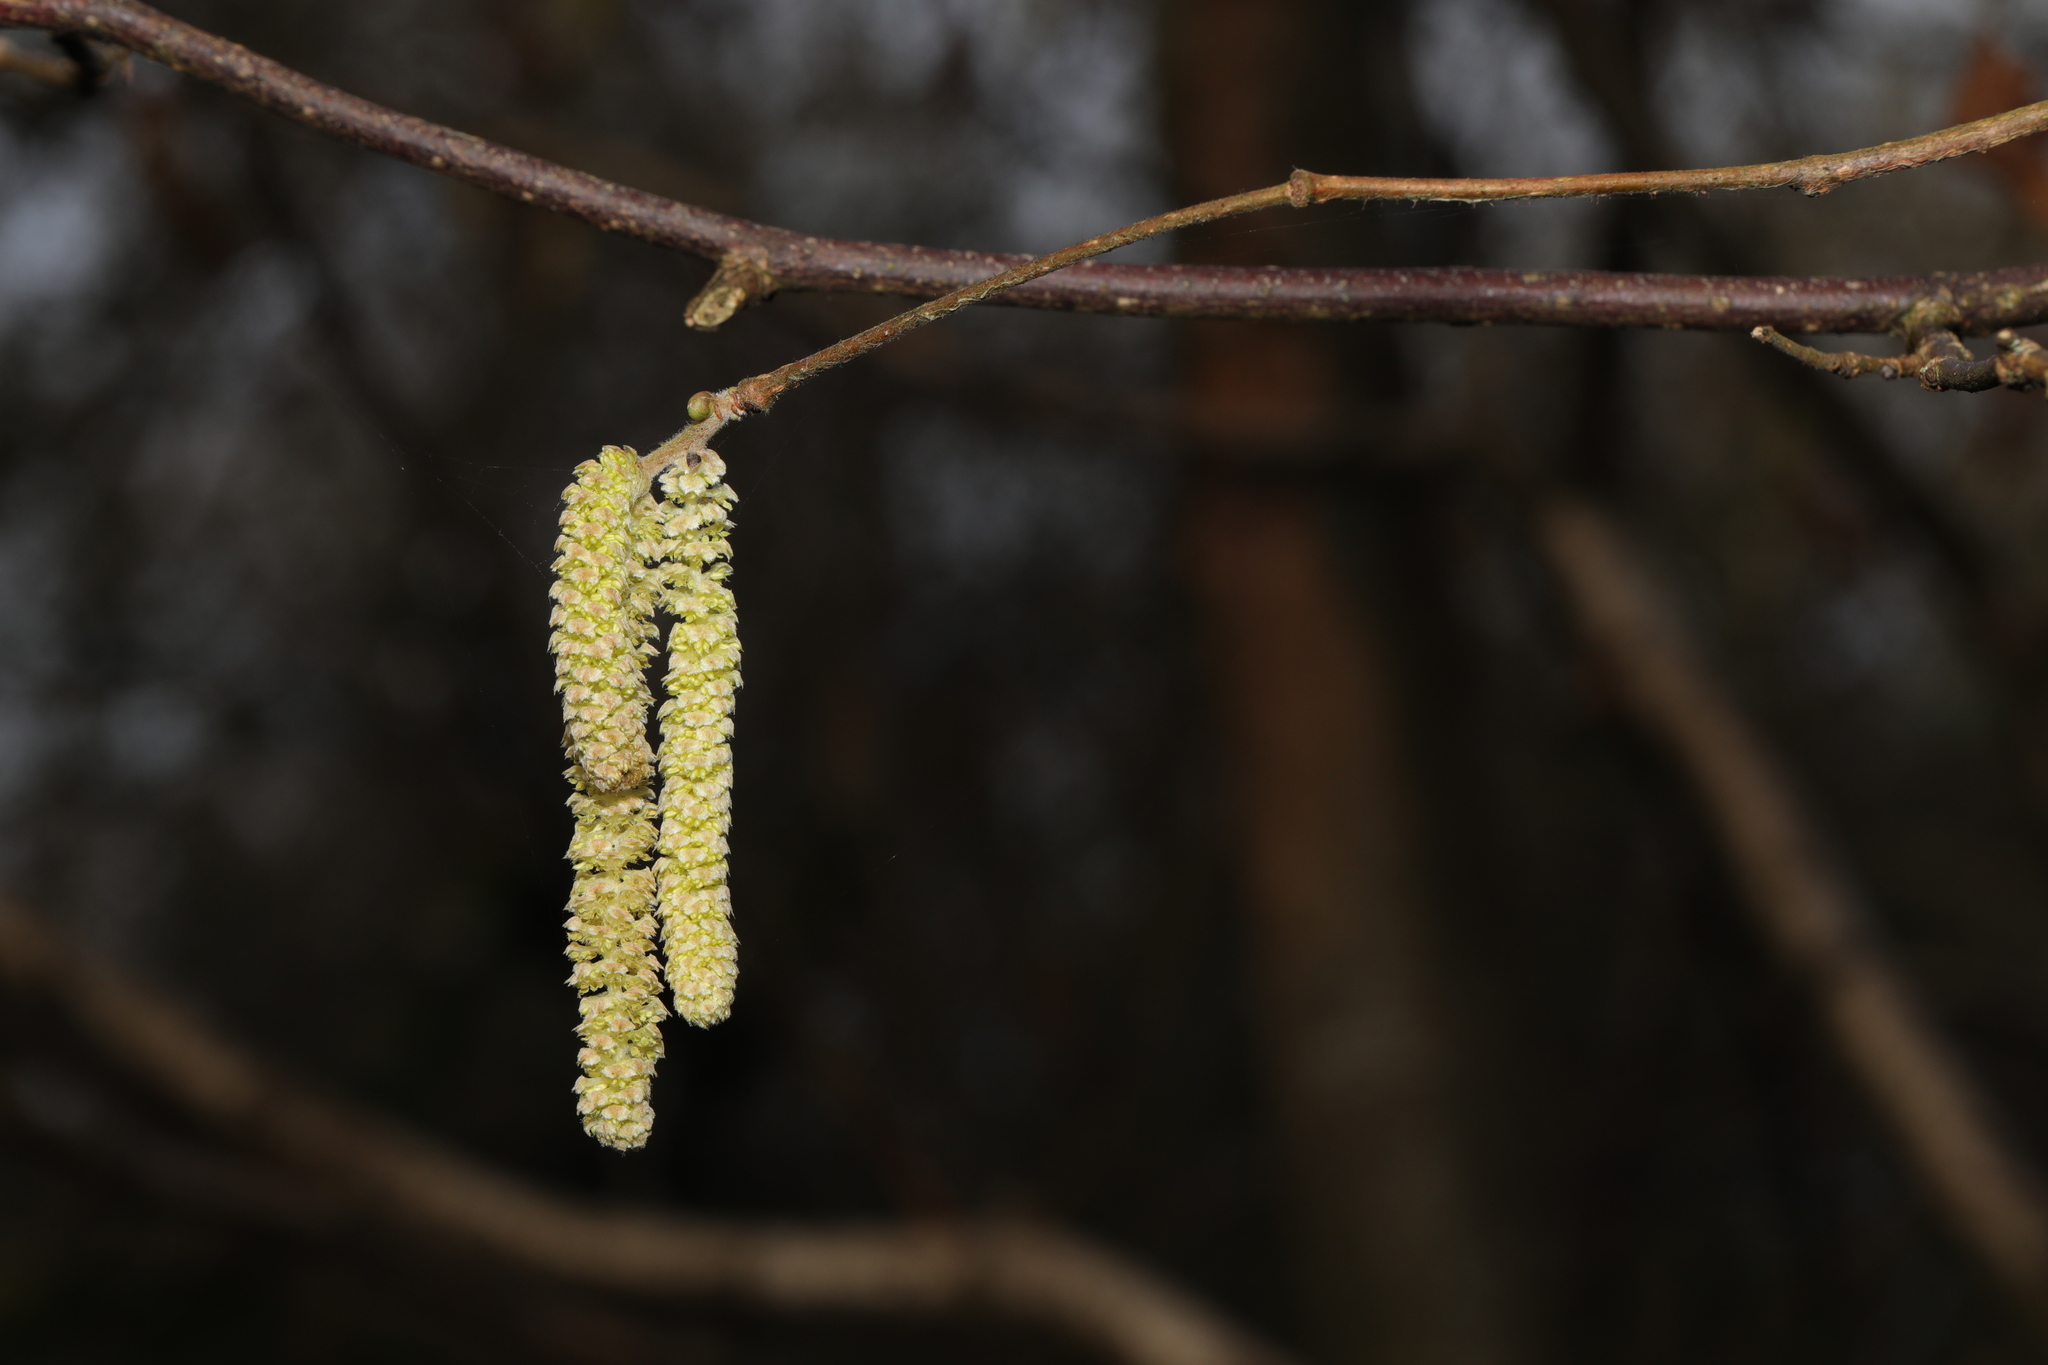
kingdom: Plantae
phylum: Tracheophyta
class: Magnoliopsida
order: Fagales
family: Betulaceae
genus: Corylus
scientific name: Corylus avellana
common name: European hazel
